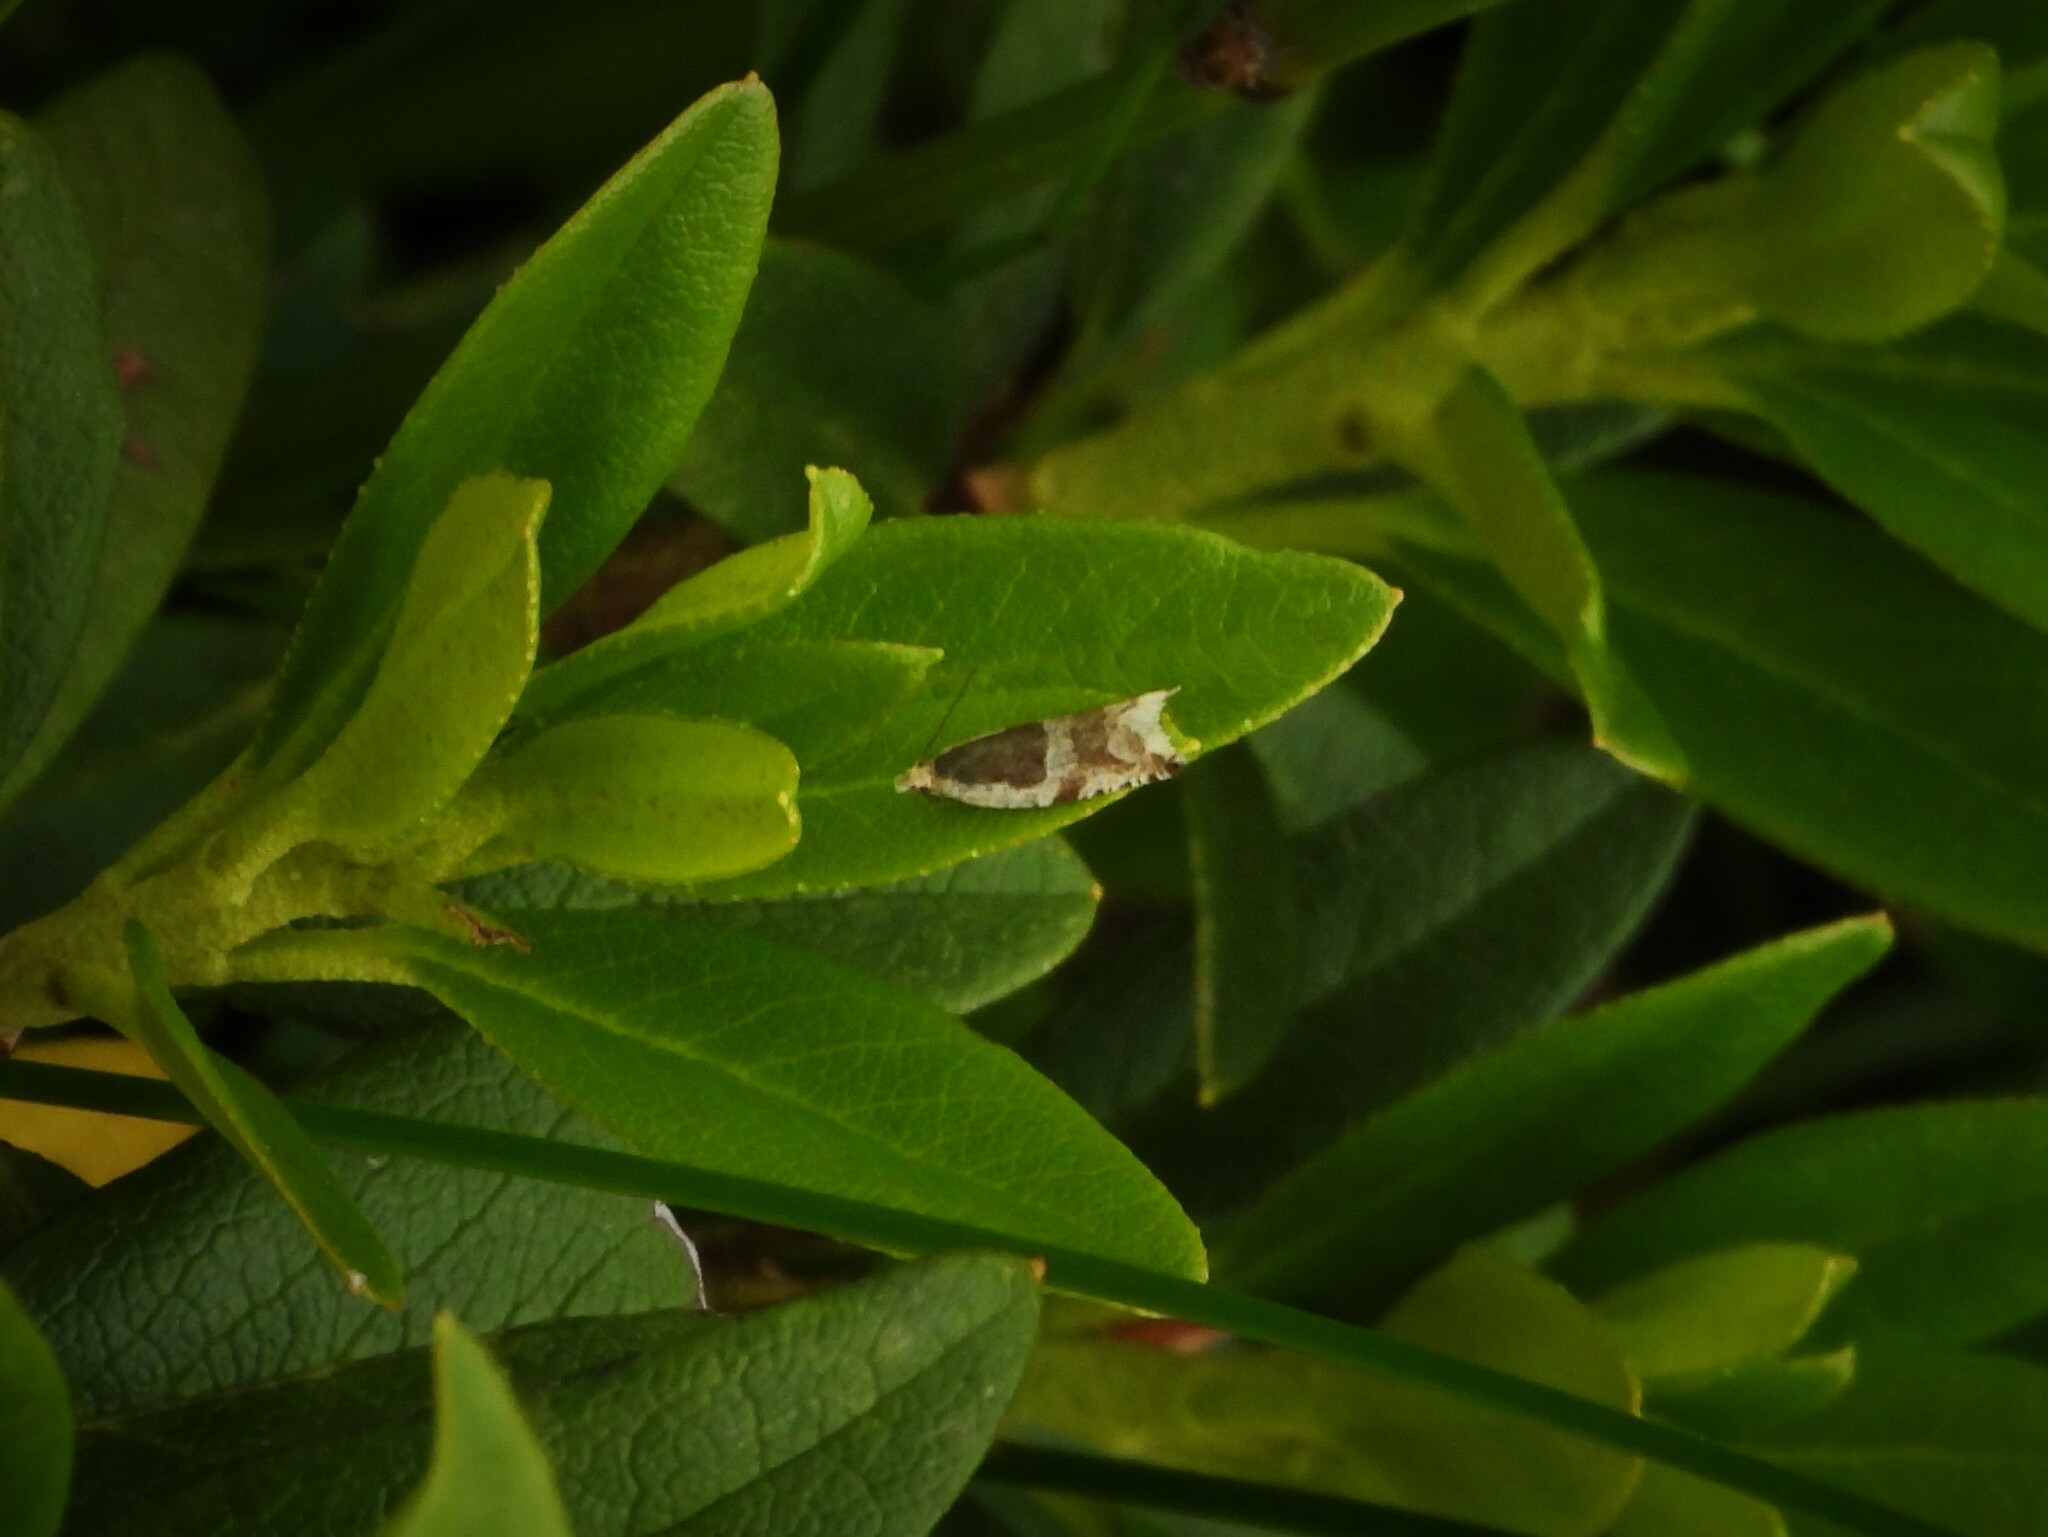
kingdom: Animalia
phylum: Arthropoda
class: Insecta
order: Lepidoptera
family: Tortricidae
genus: Ancylis
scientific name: Ancylis badiana
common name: Common roller
